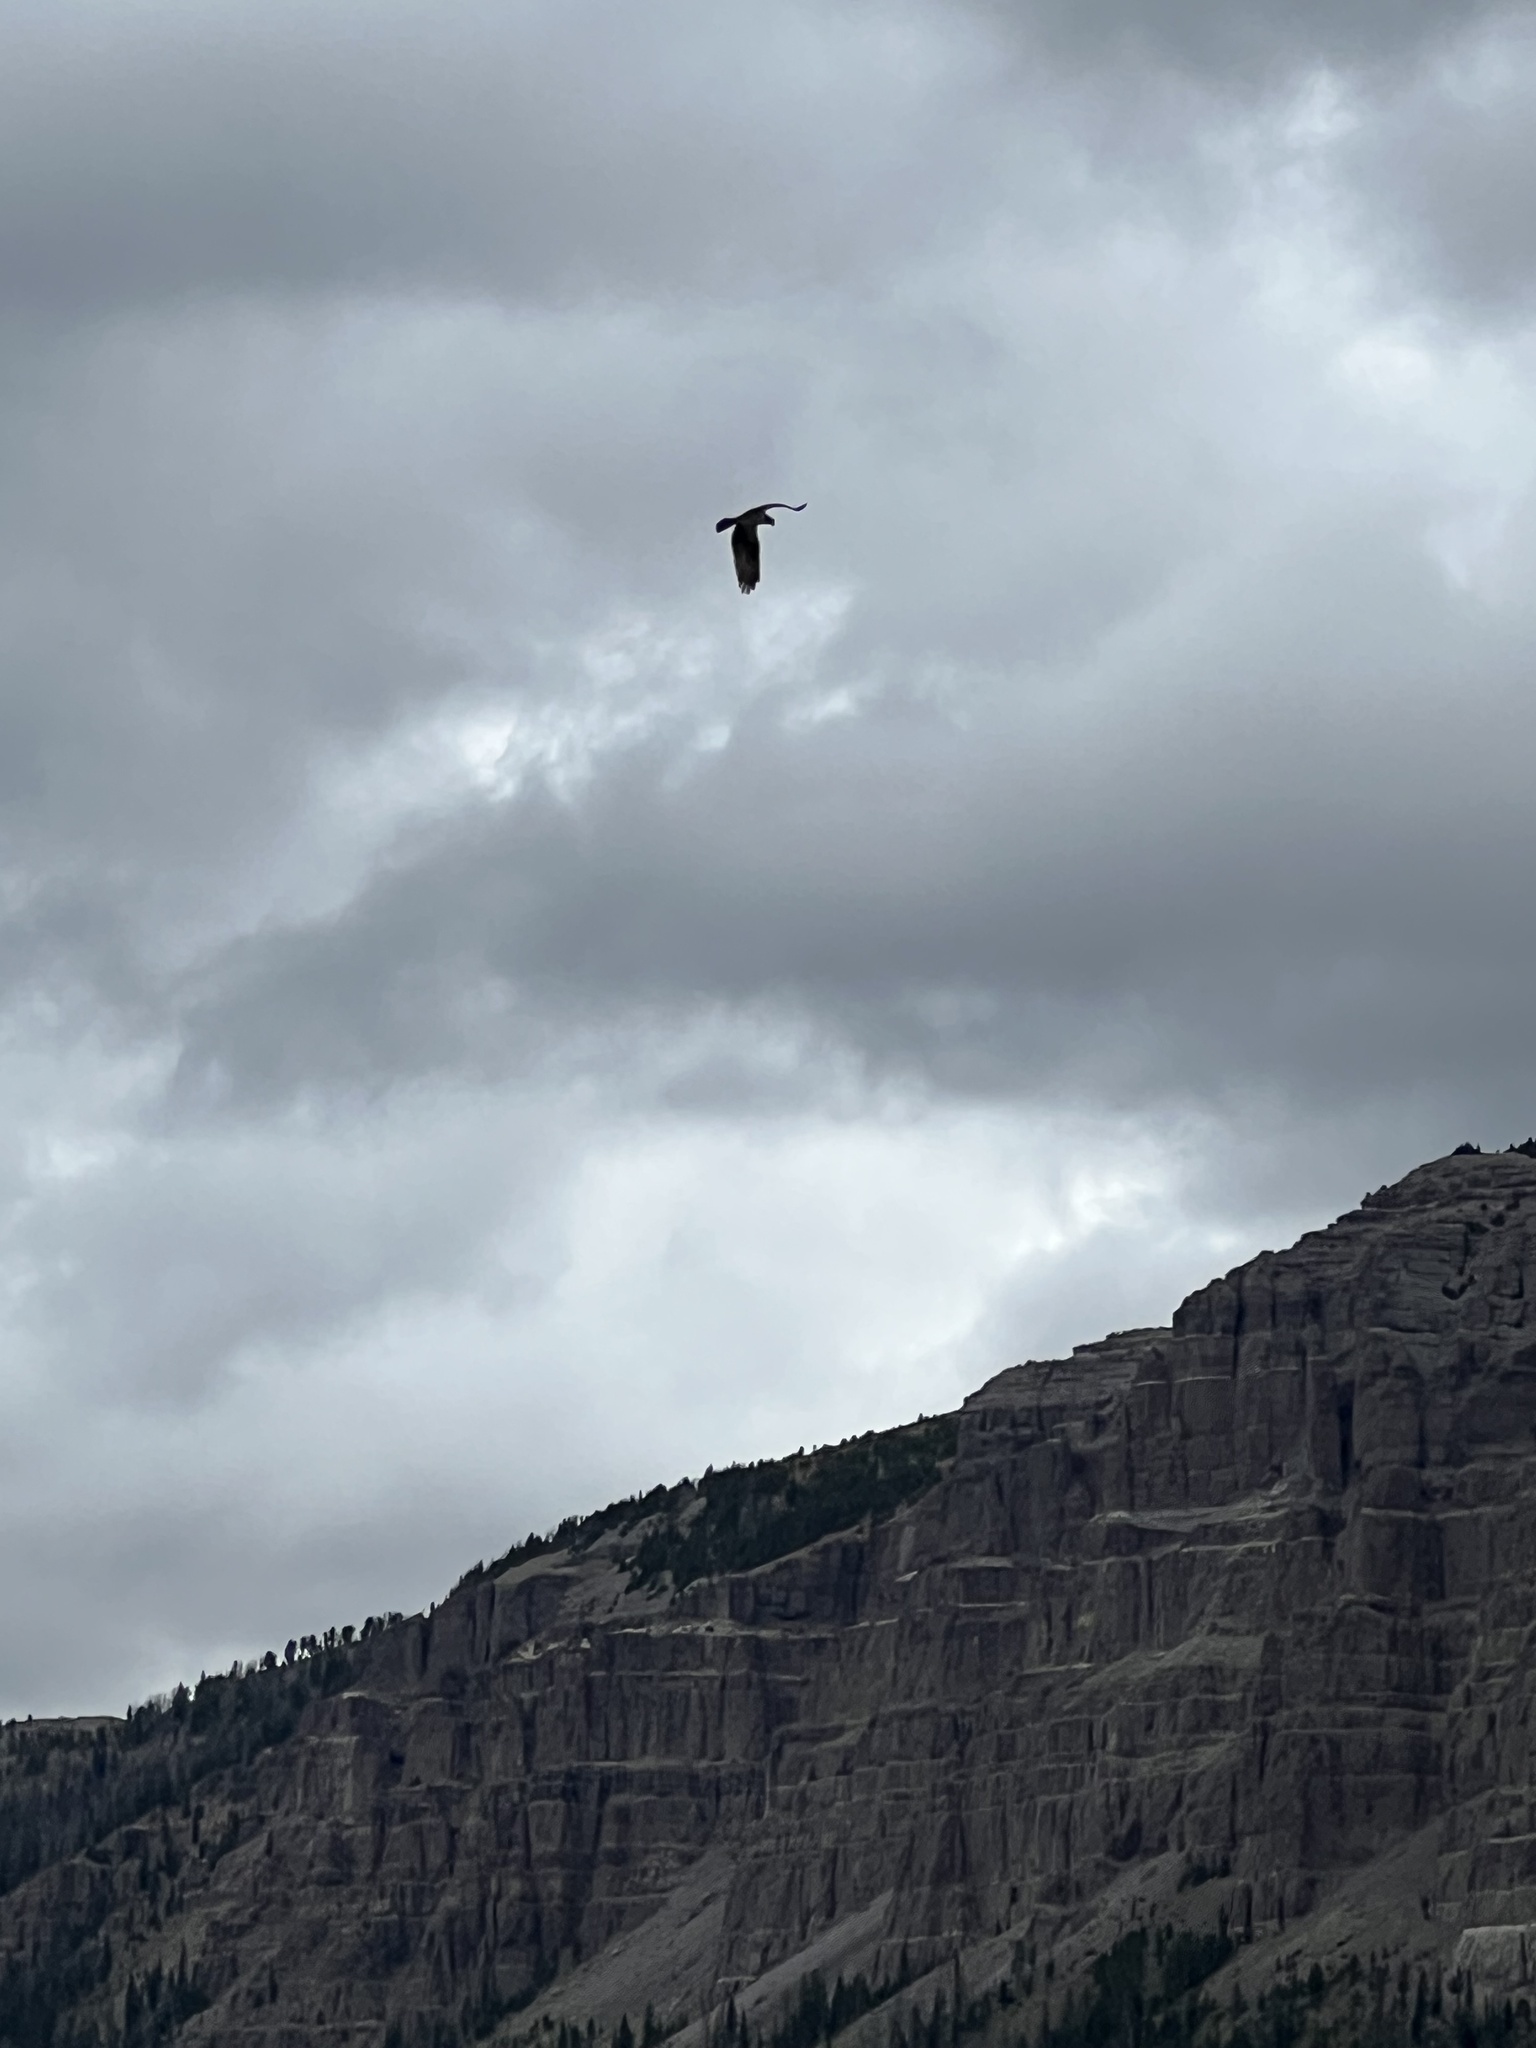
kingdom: Animalia
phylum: Chordata
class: Aves
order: Accipitriformes
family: Pandionidae
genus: Pandion
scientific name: Pandion haliaetus
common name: Osprey
